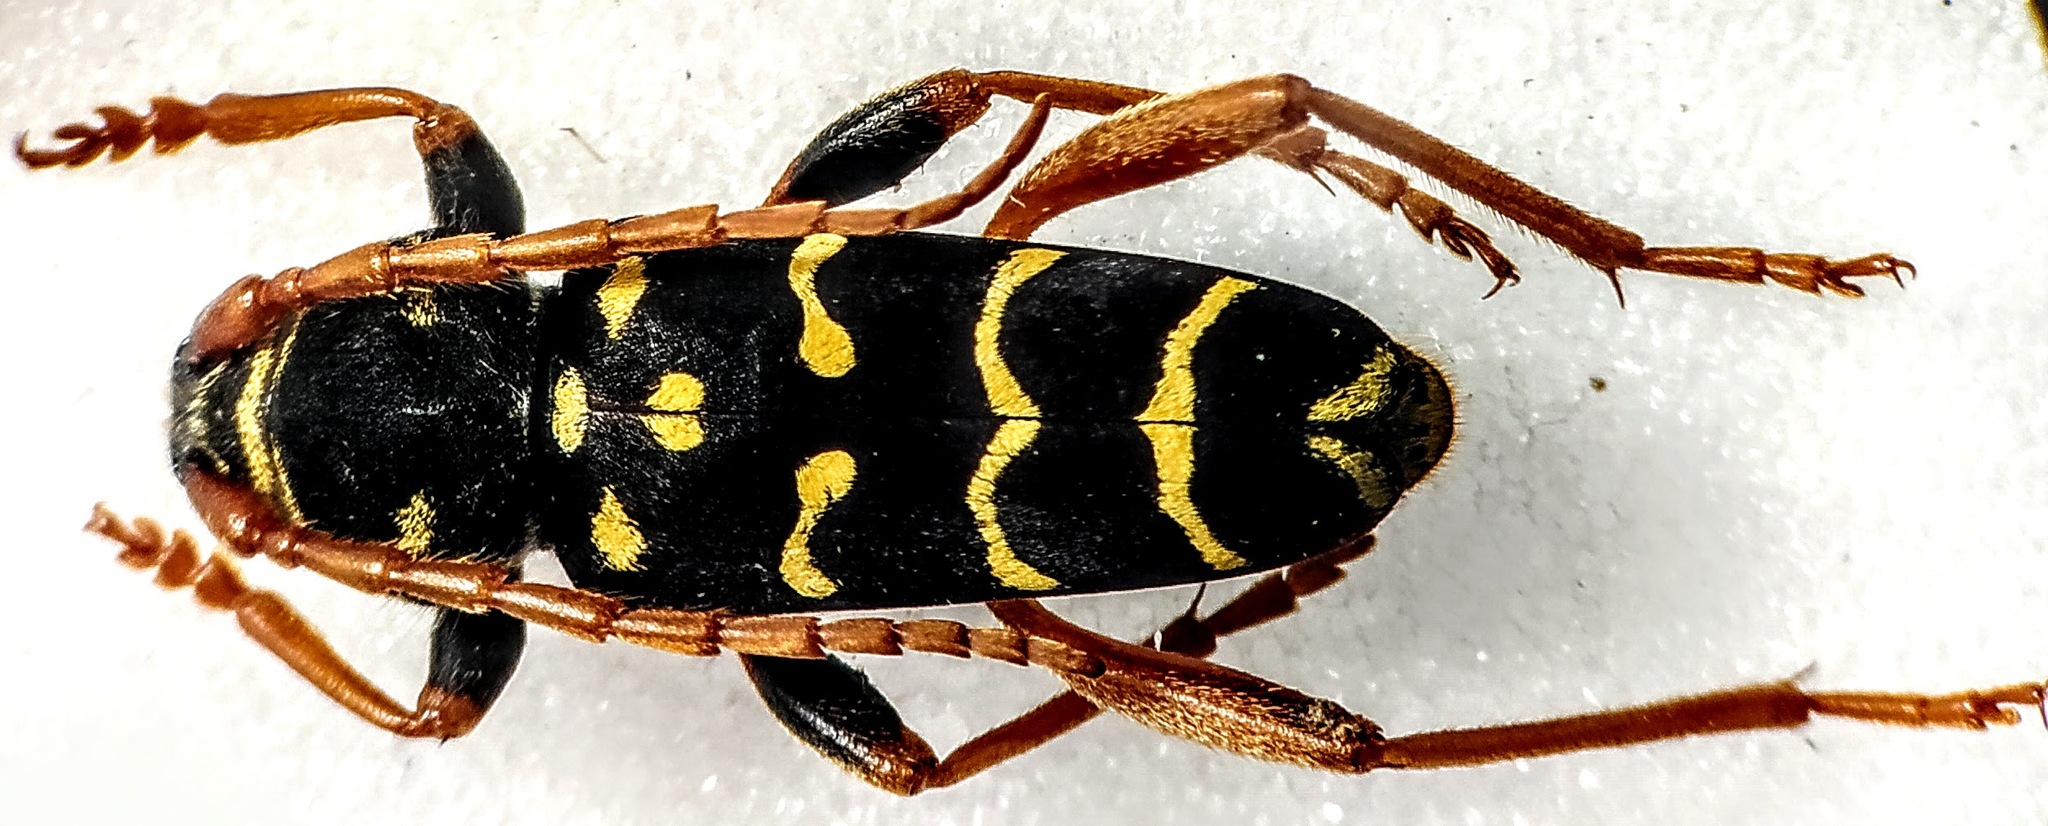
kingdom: Animalia
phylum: Arthropoda
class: Insecta
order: Coleoptera
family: Cerambycidae
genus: Plagionotus
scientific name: Plagionotus arcuatus
